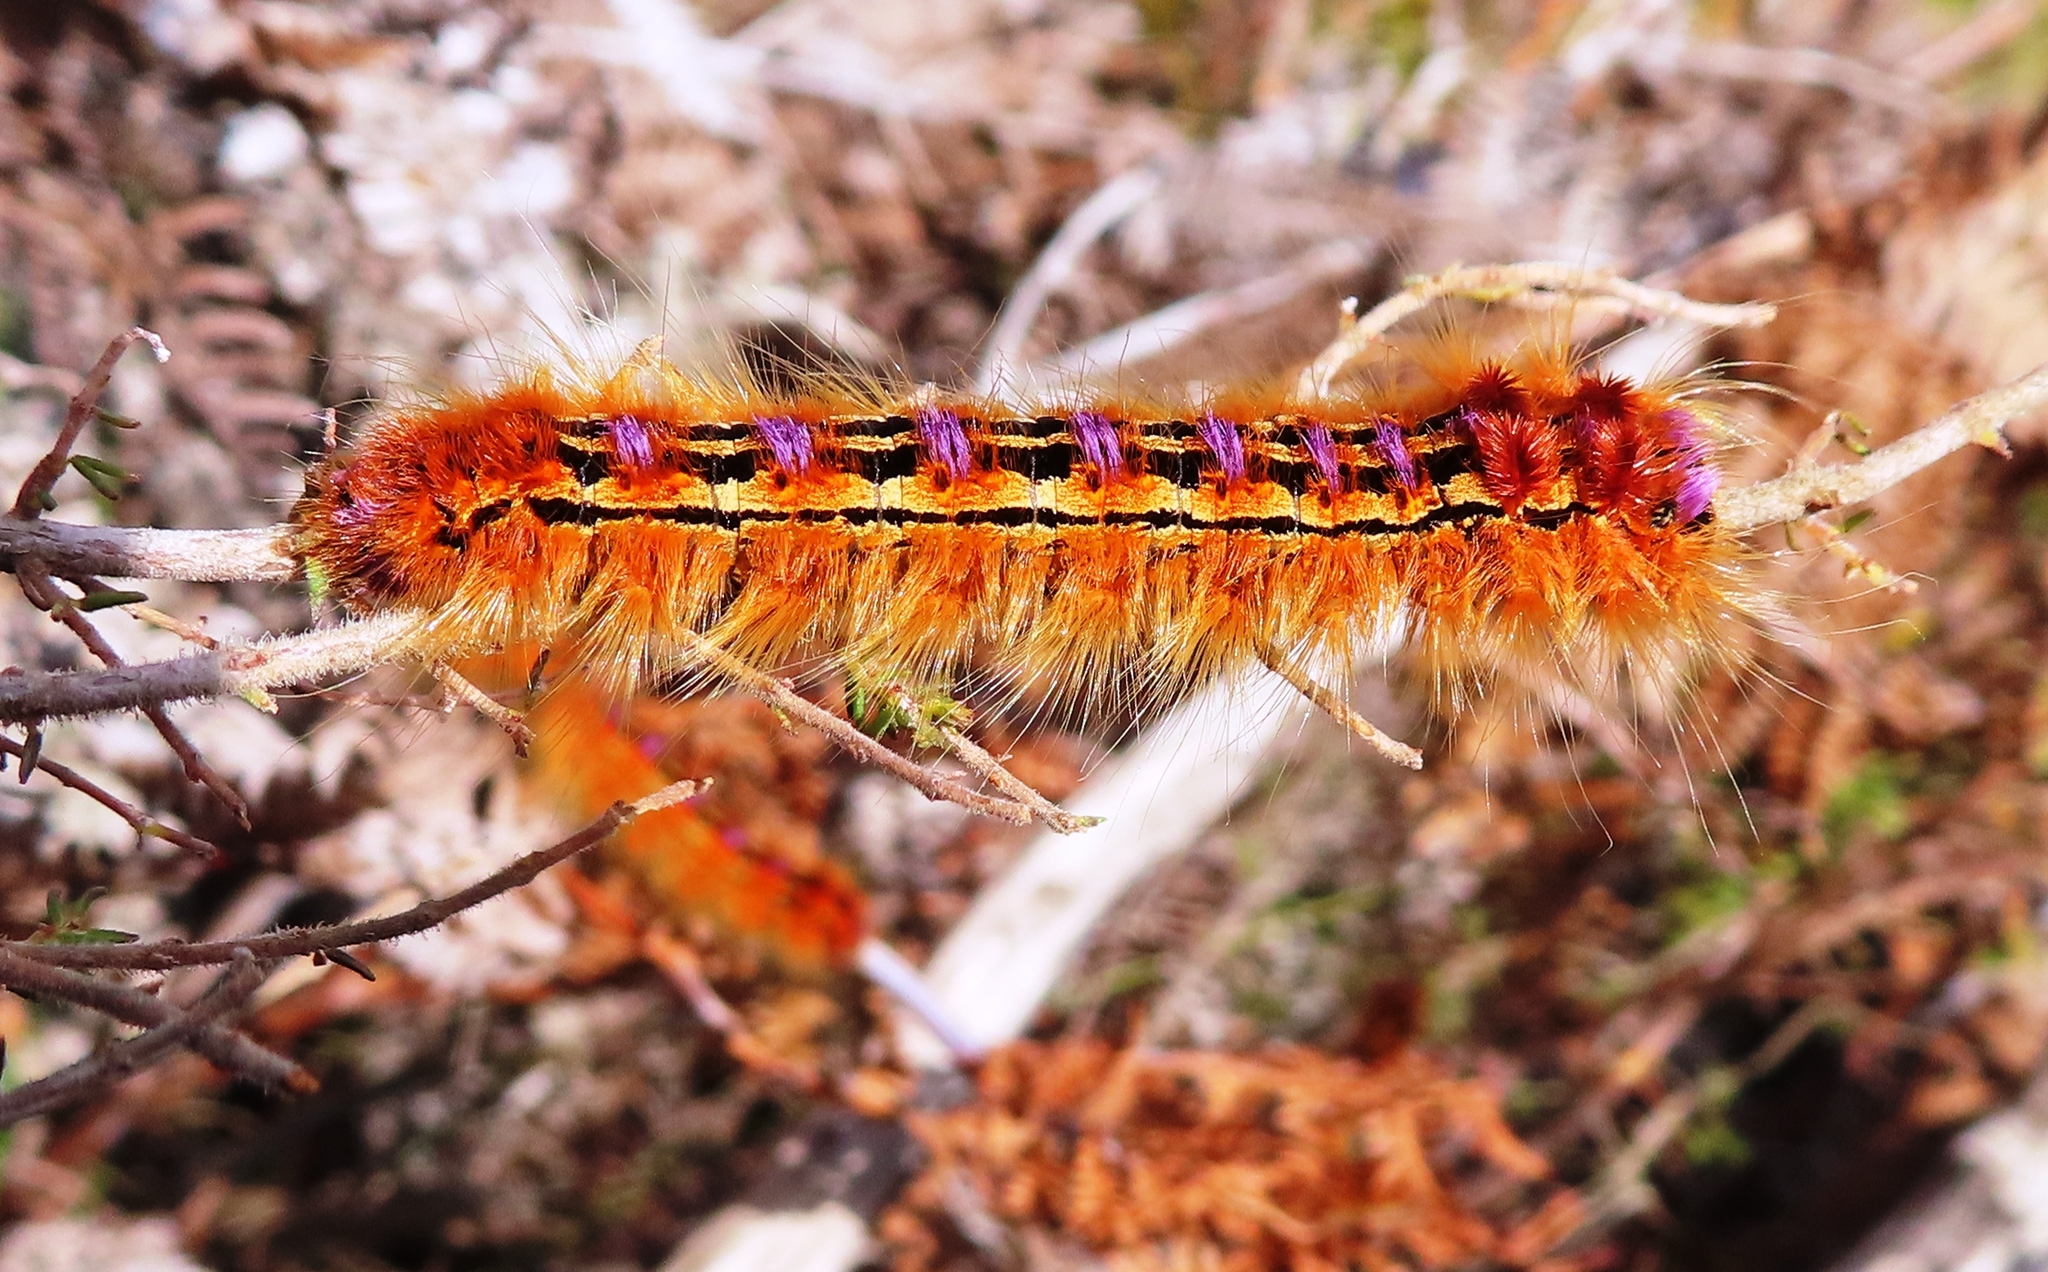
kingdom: Animalia
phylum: Arthropoda
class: Insecta
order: Lepidoptera
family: Lasiocampidae
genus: Eutricha
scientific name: Eutricha bifascia
